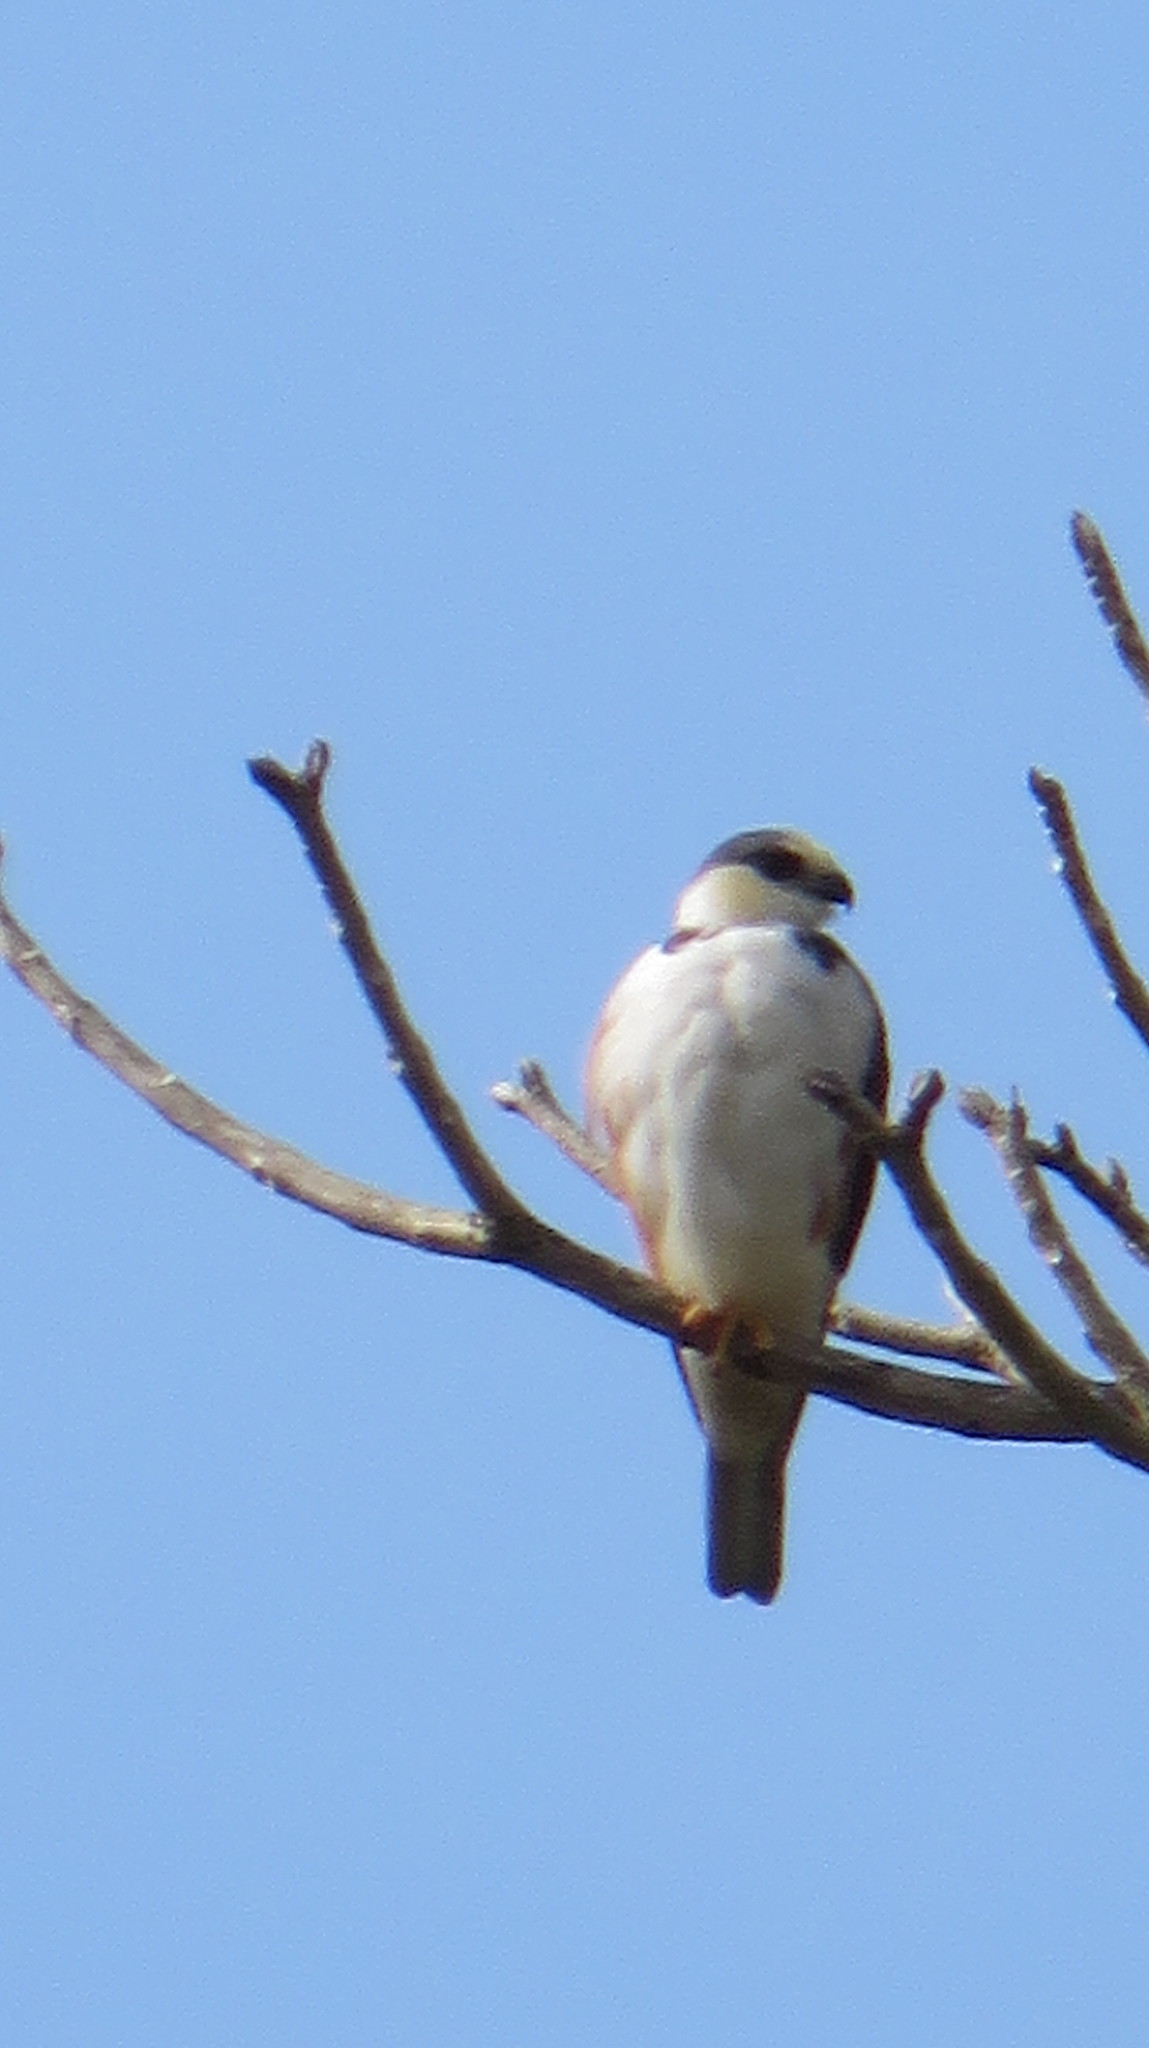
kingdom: Animalia
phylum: Chordata
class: Aves
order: Accipitriformes
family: Accipitridae
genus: Gampsonyx
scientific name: Gampsonyx swainsonii
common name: Pearl kite
